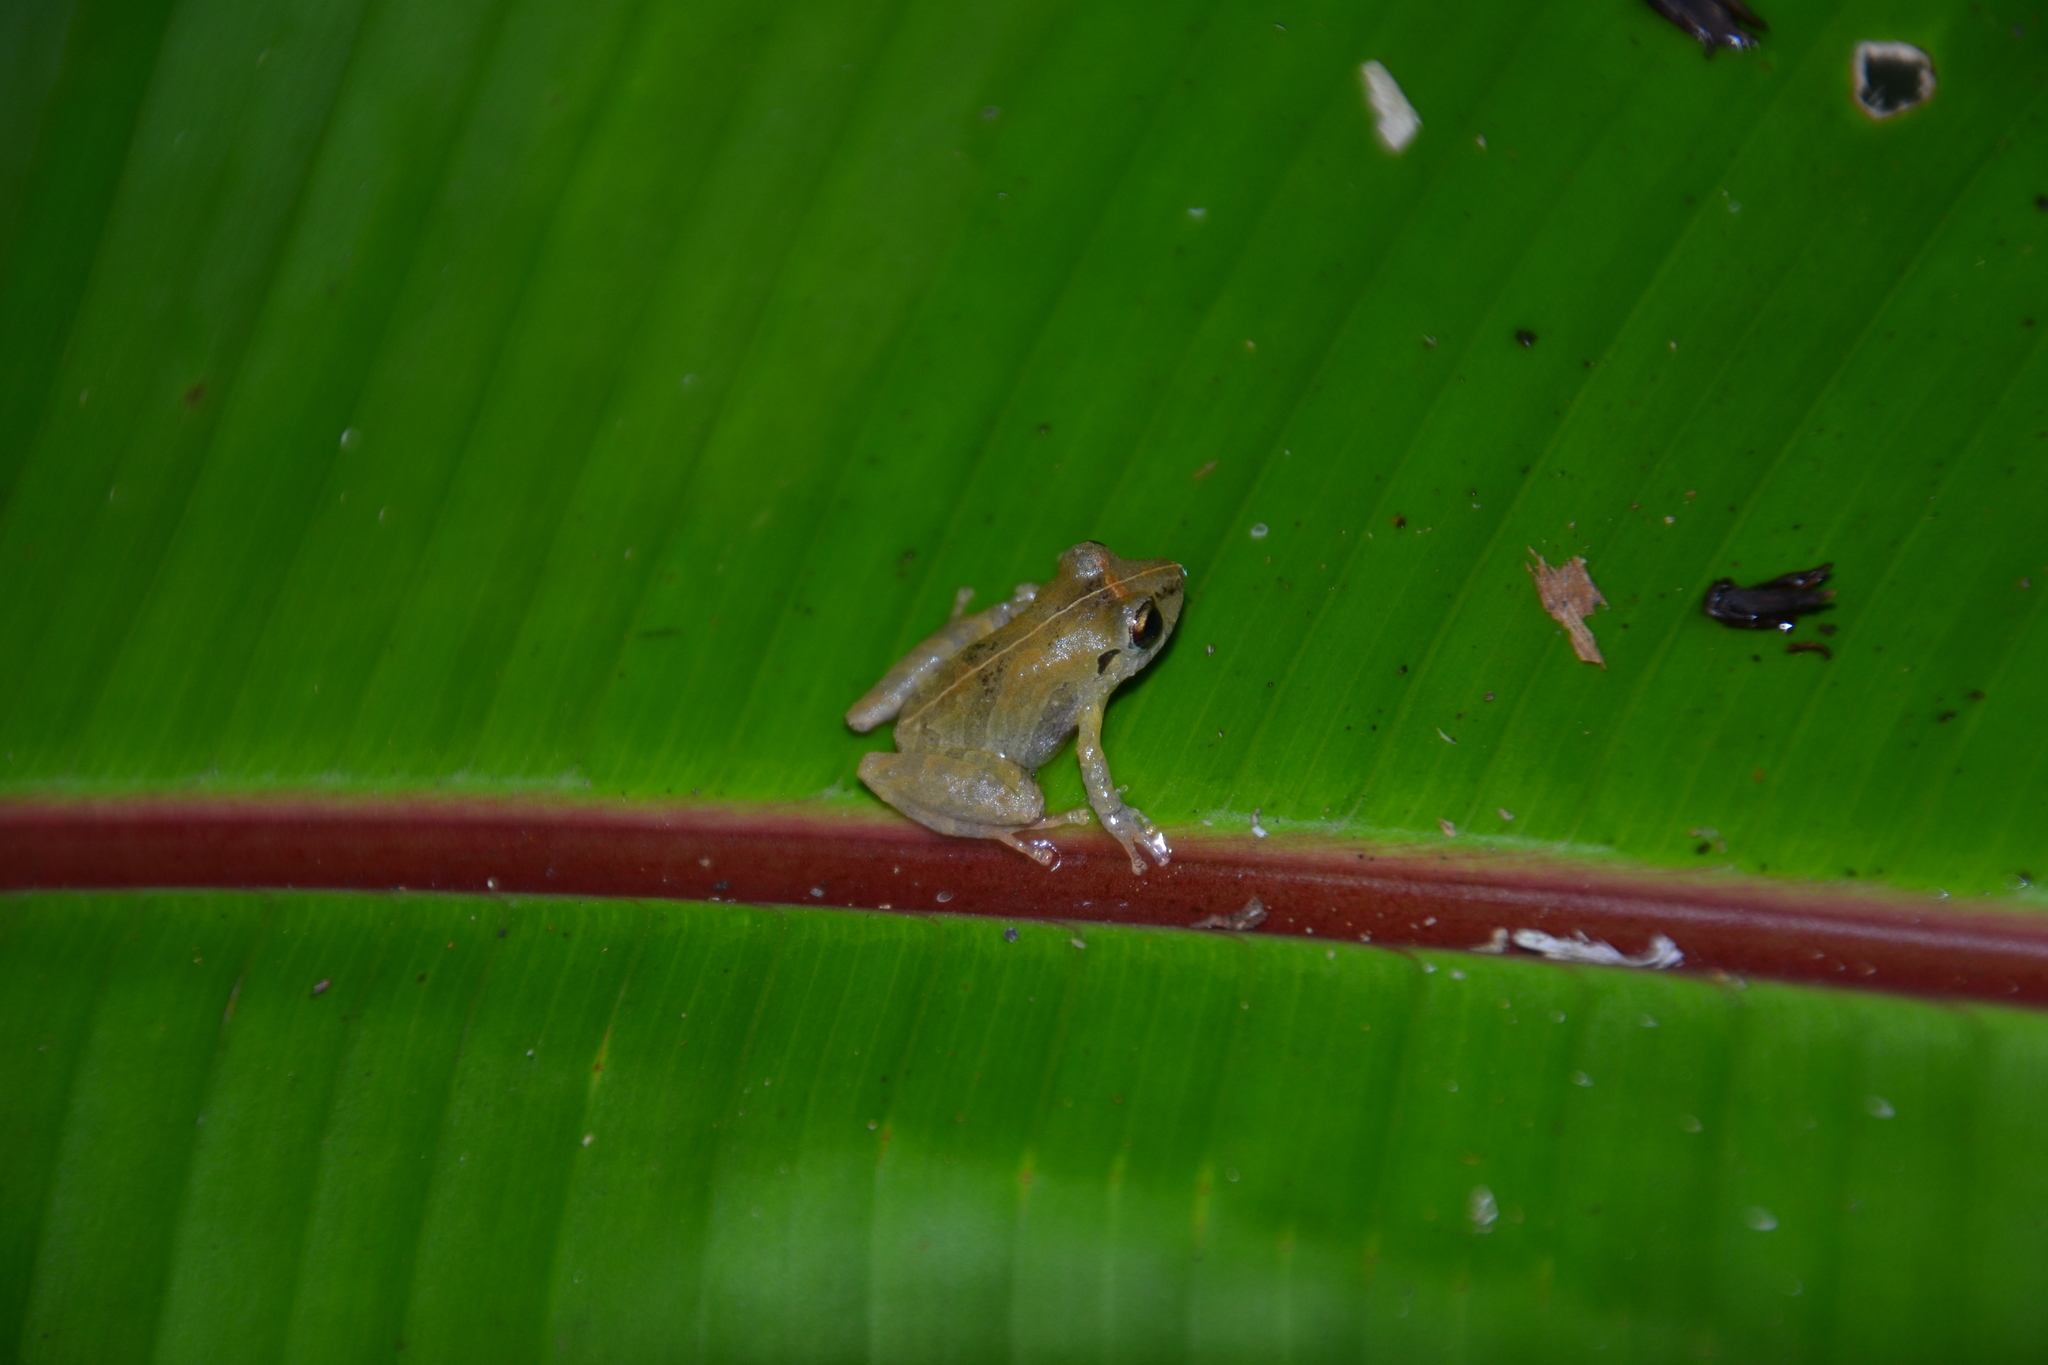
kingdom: Animalia
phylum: Chordata
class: Amphibia
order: Anura
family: Craugastoridae
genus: Pristimantis
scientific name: Pristimantis ridens
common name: Rio san juan robber frog
